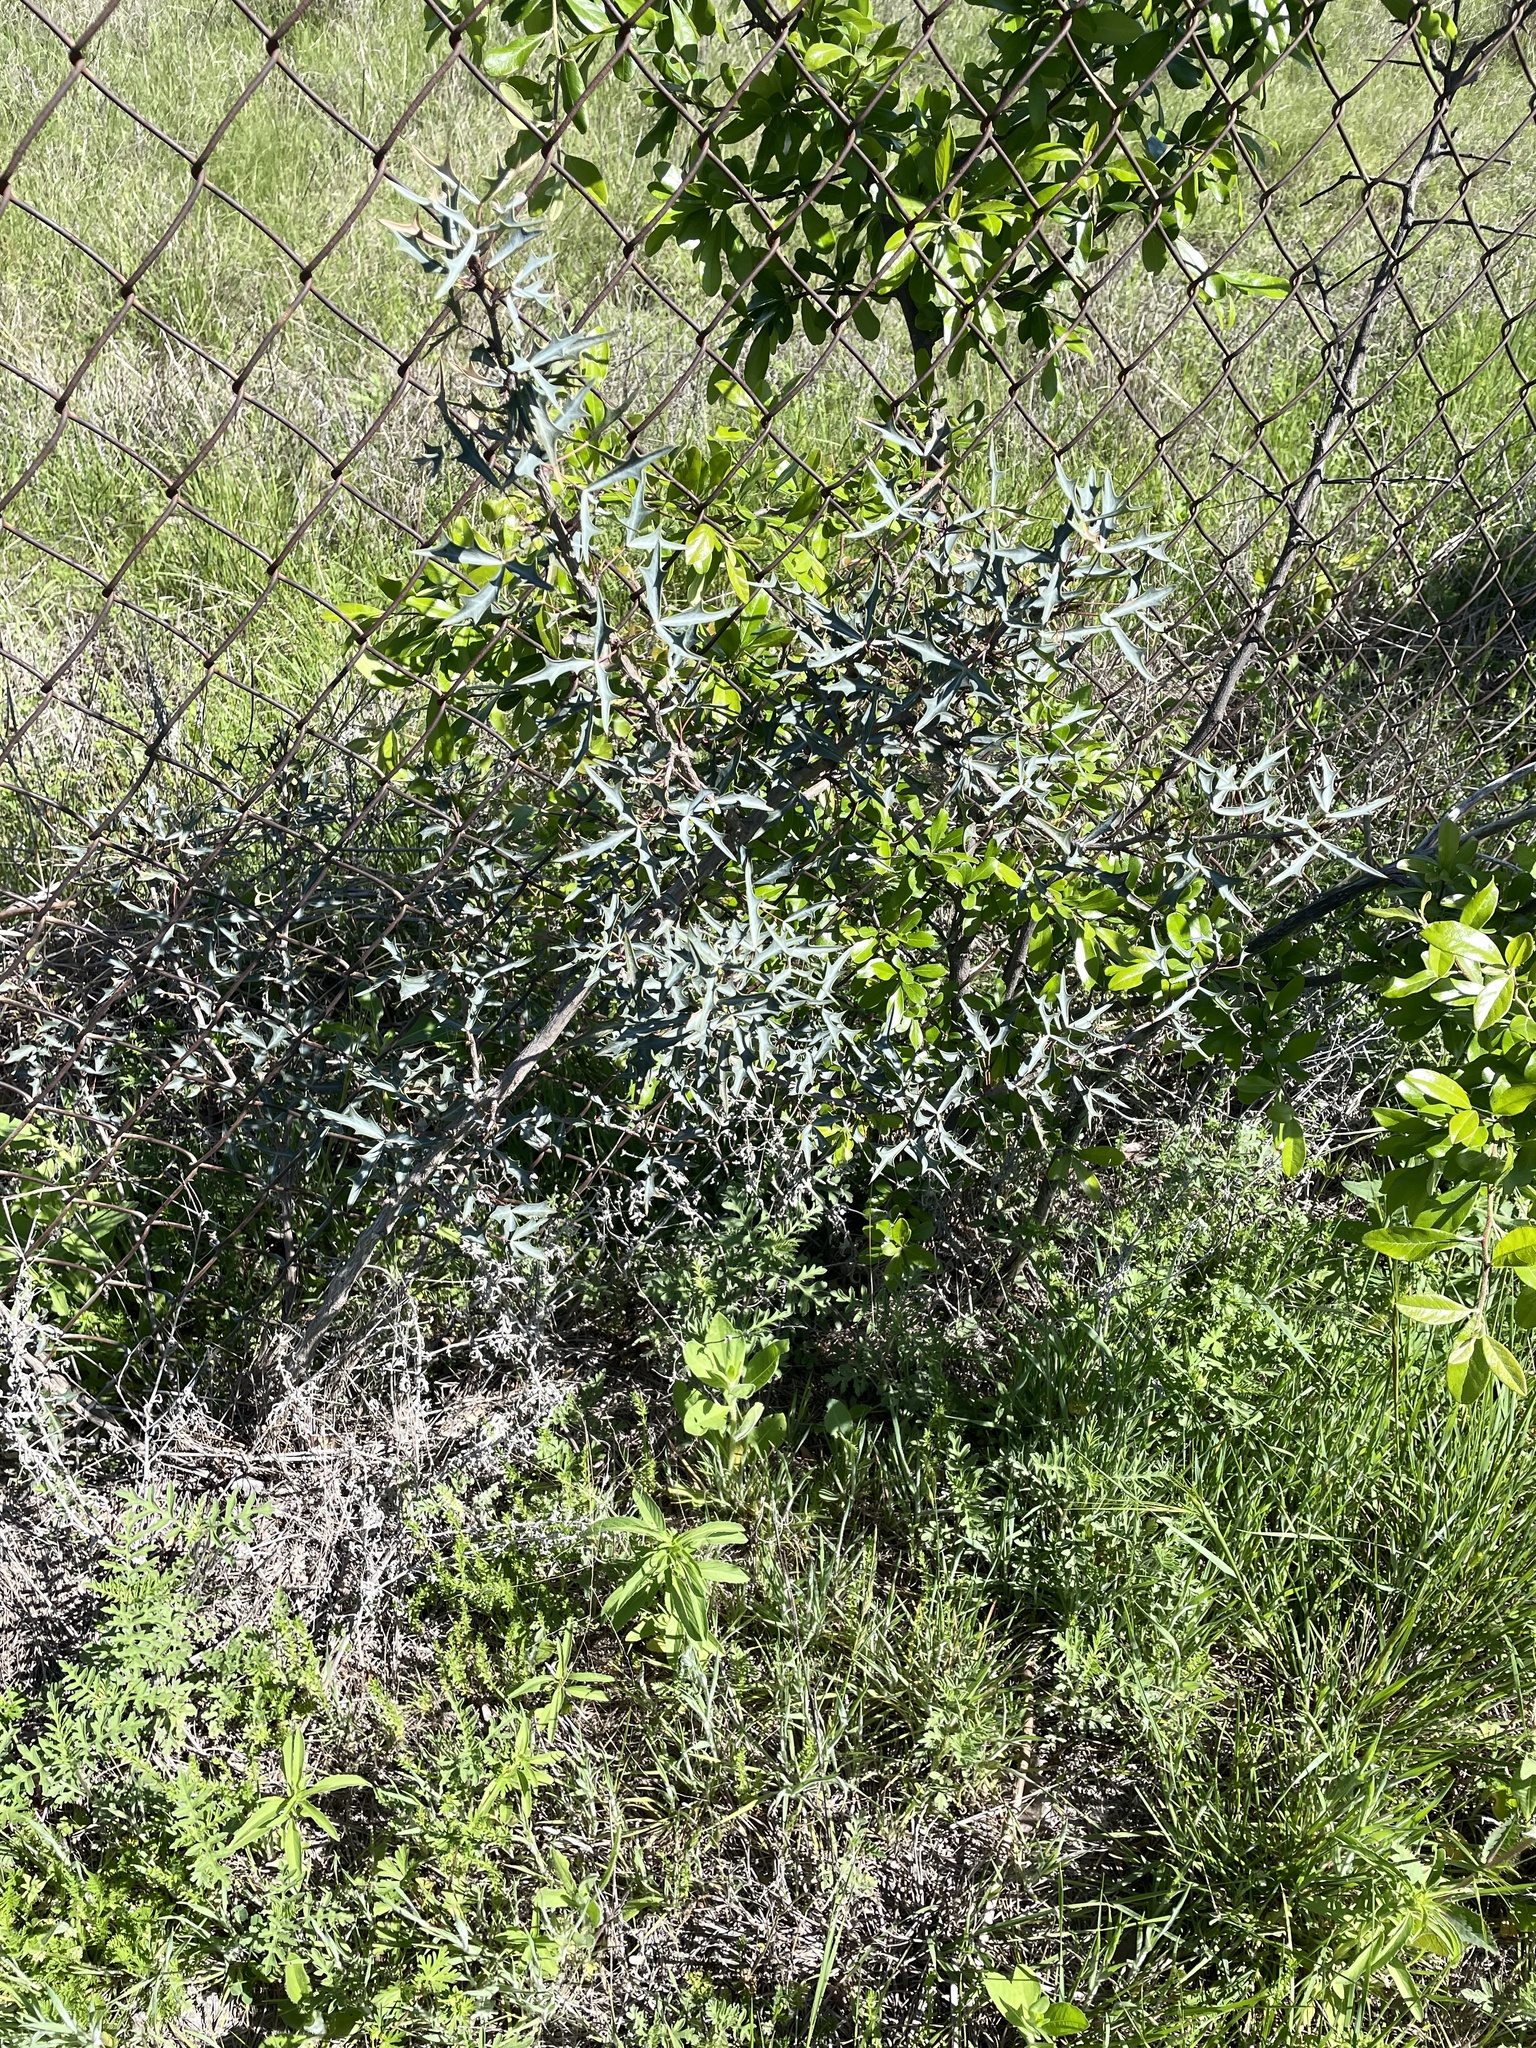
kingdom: Plantae
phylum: Tracheophyta
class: Magnoliopsida
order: Ranunculales
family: Berberidaceae
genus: Alloberberis
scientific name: Alloberberis trifoliolata
